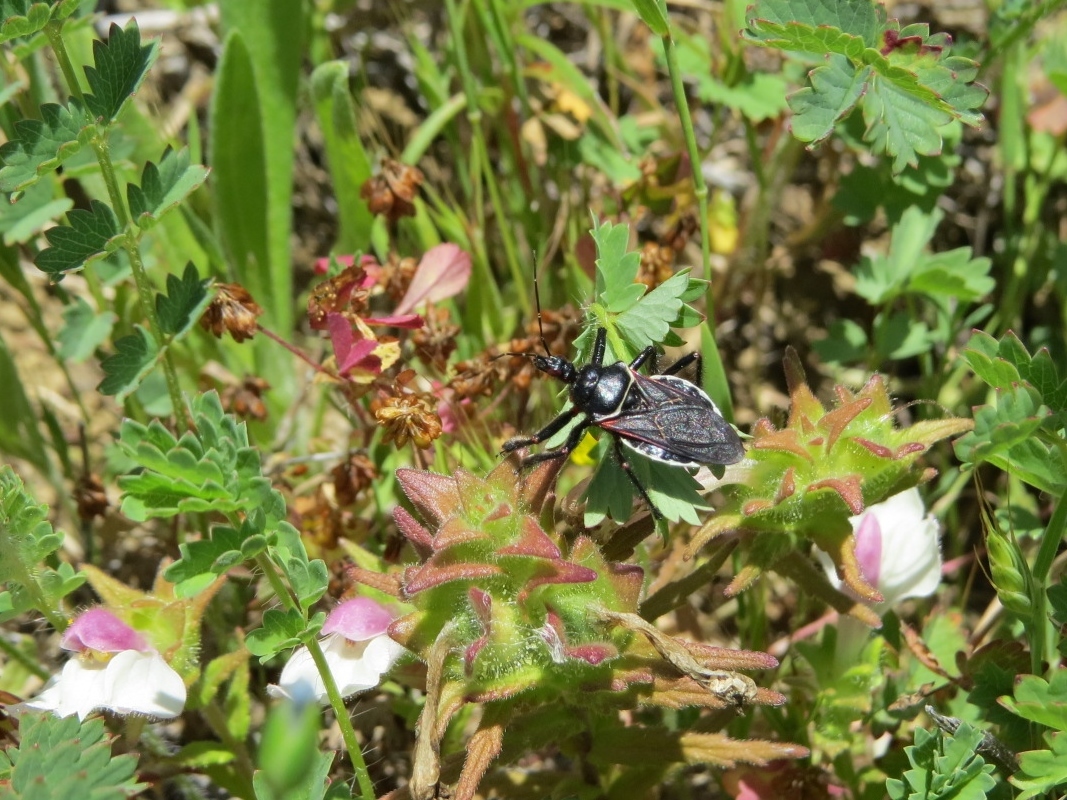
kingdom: Animalia
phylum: Arthropoda
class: Insecta
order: Hemiptera
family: Reduviidae
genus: Apiomerus
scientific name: Apiomerus californicus
